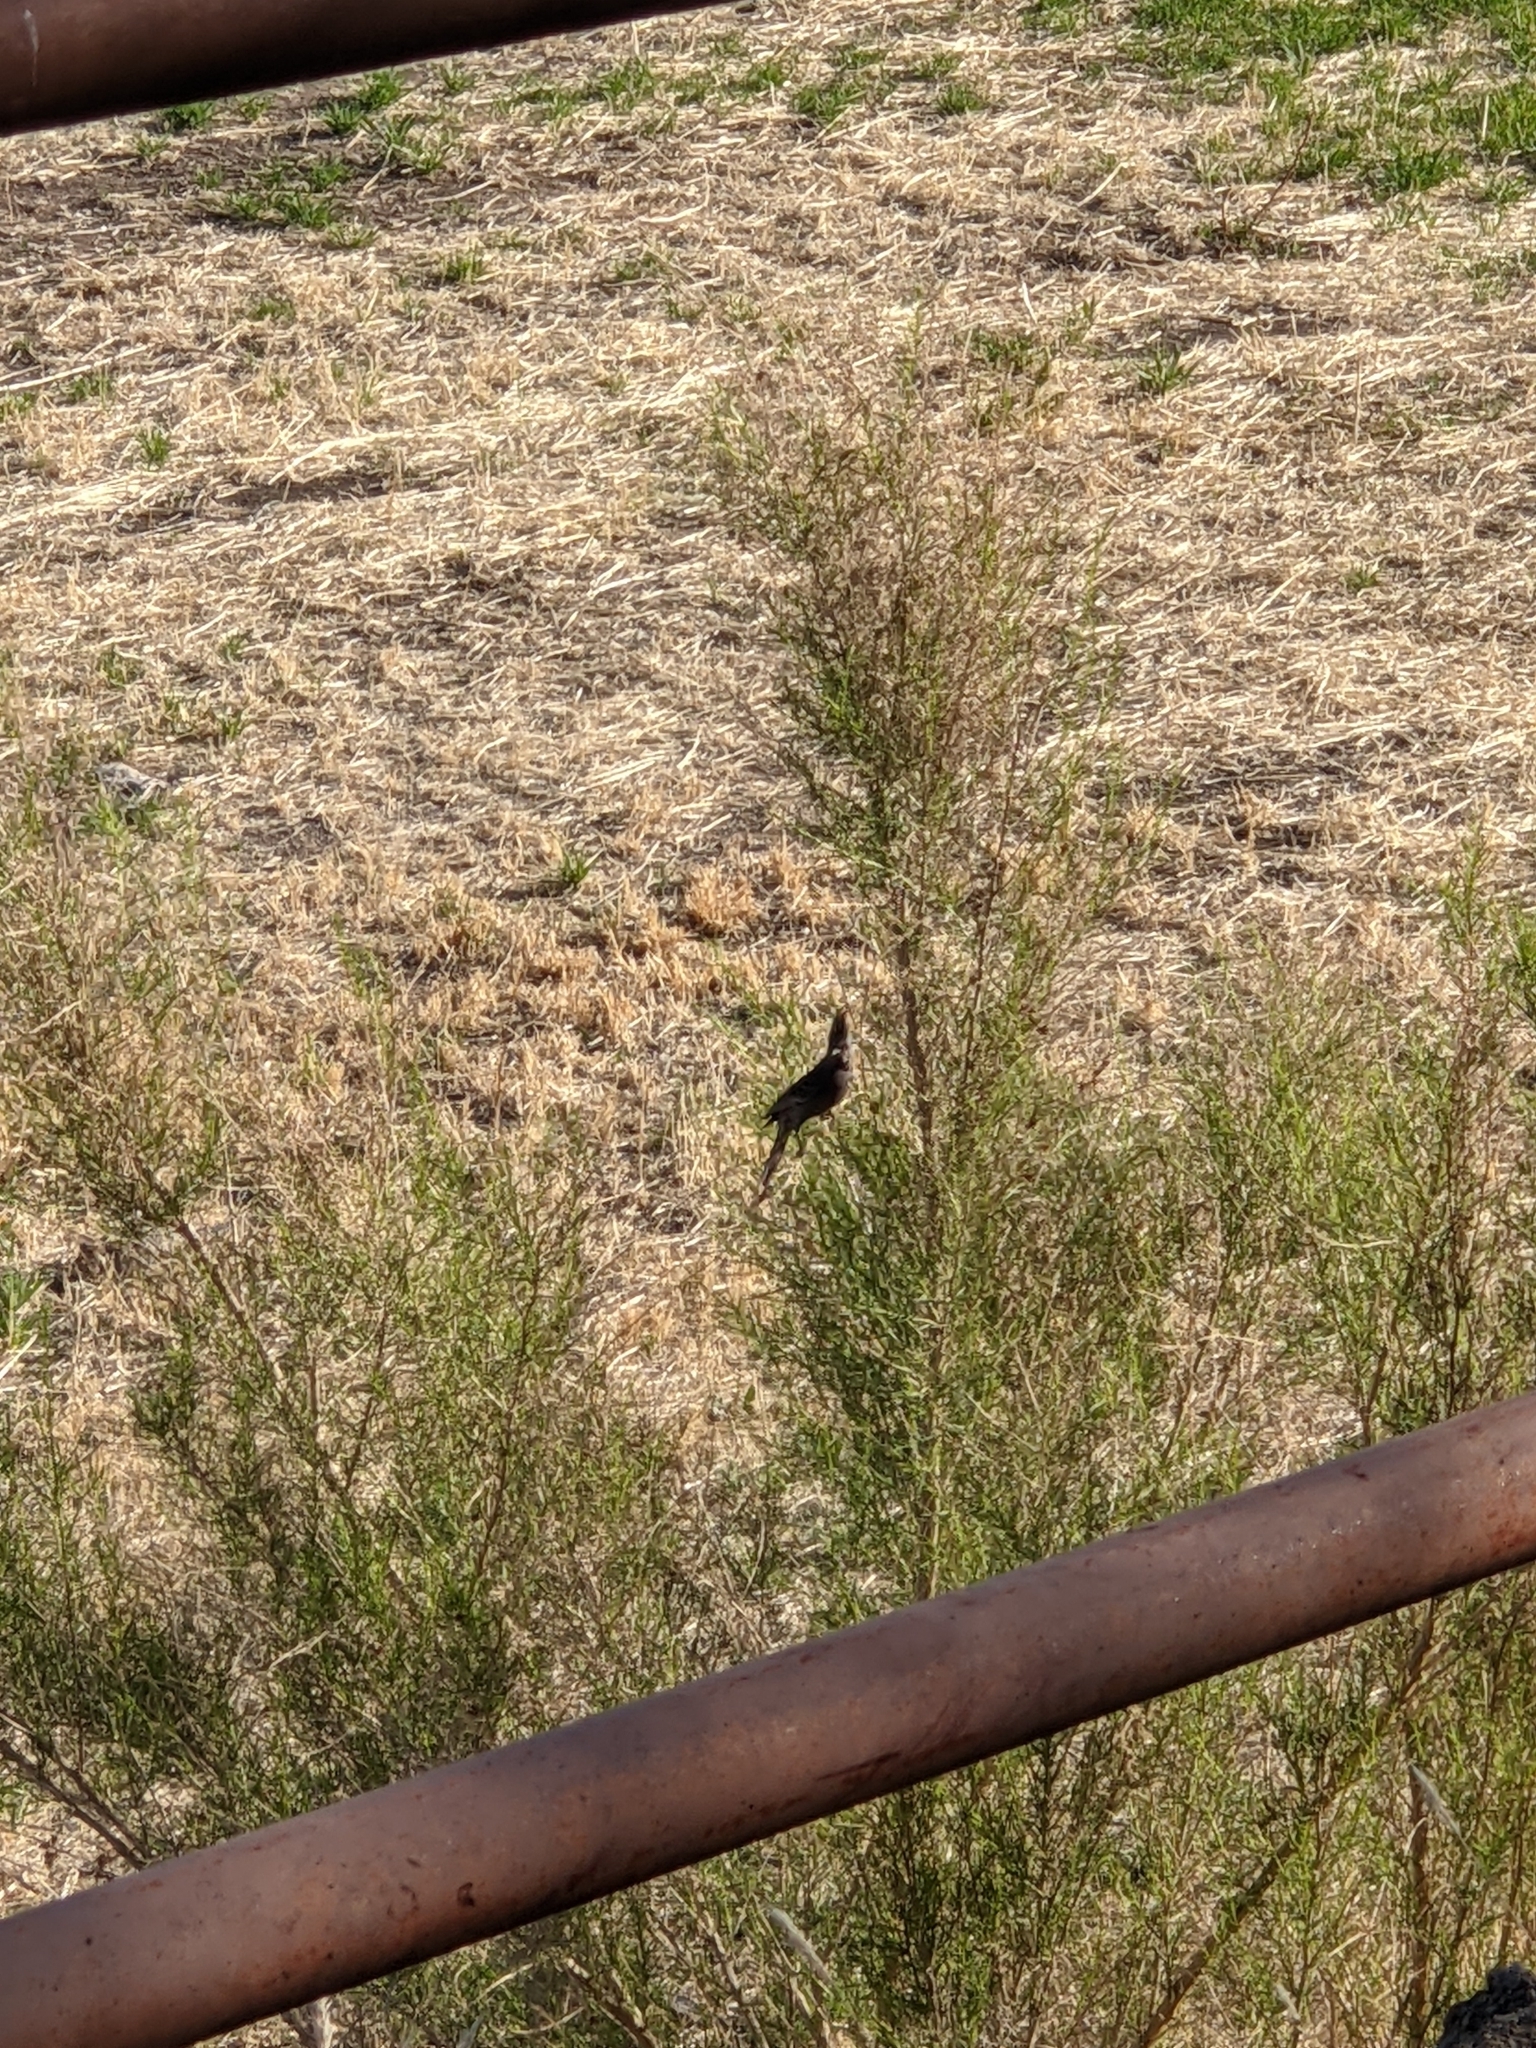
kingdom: Animalia
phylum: Chordata
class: Aves
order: Passeriformes
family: Ptilogonatidae
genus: Phainopepla
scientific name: Phainopepla nitens
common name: Phainopepla
